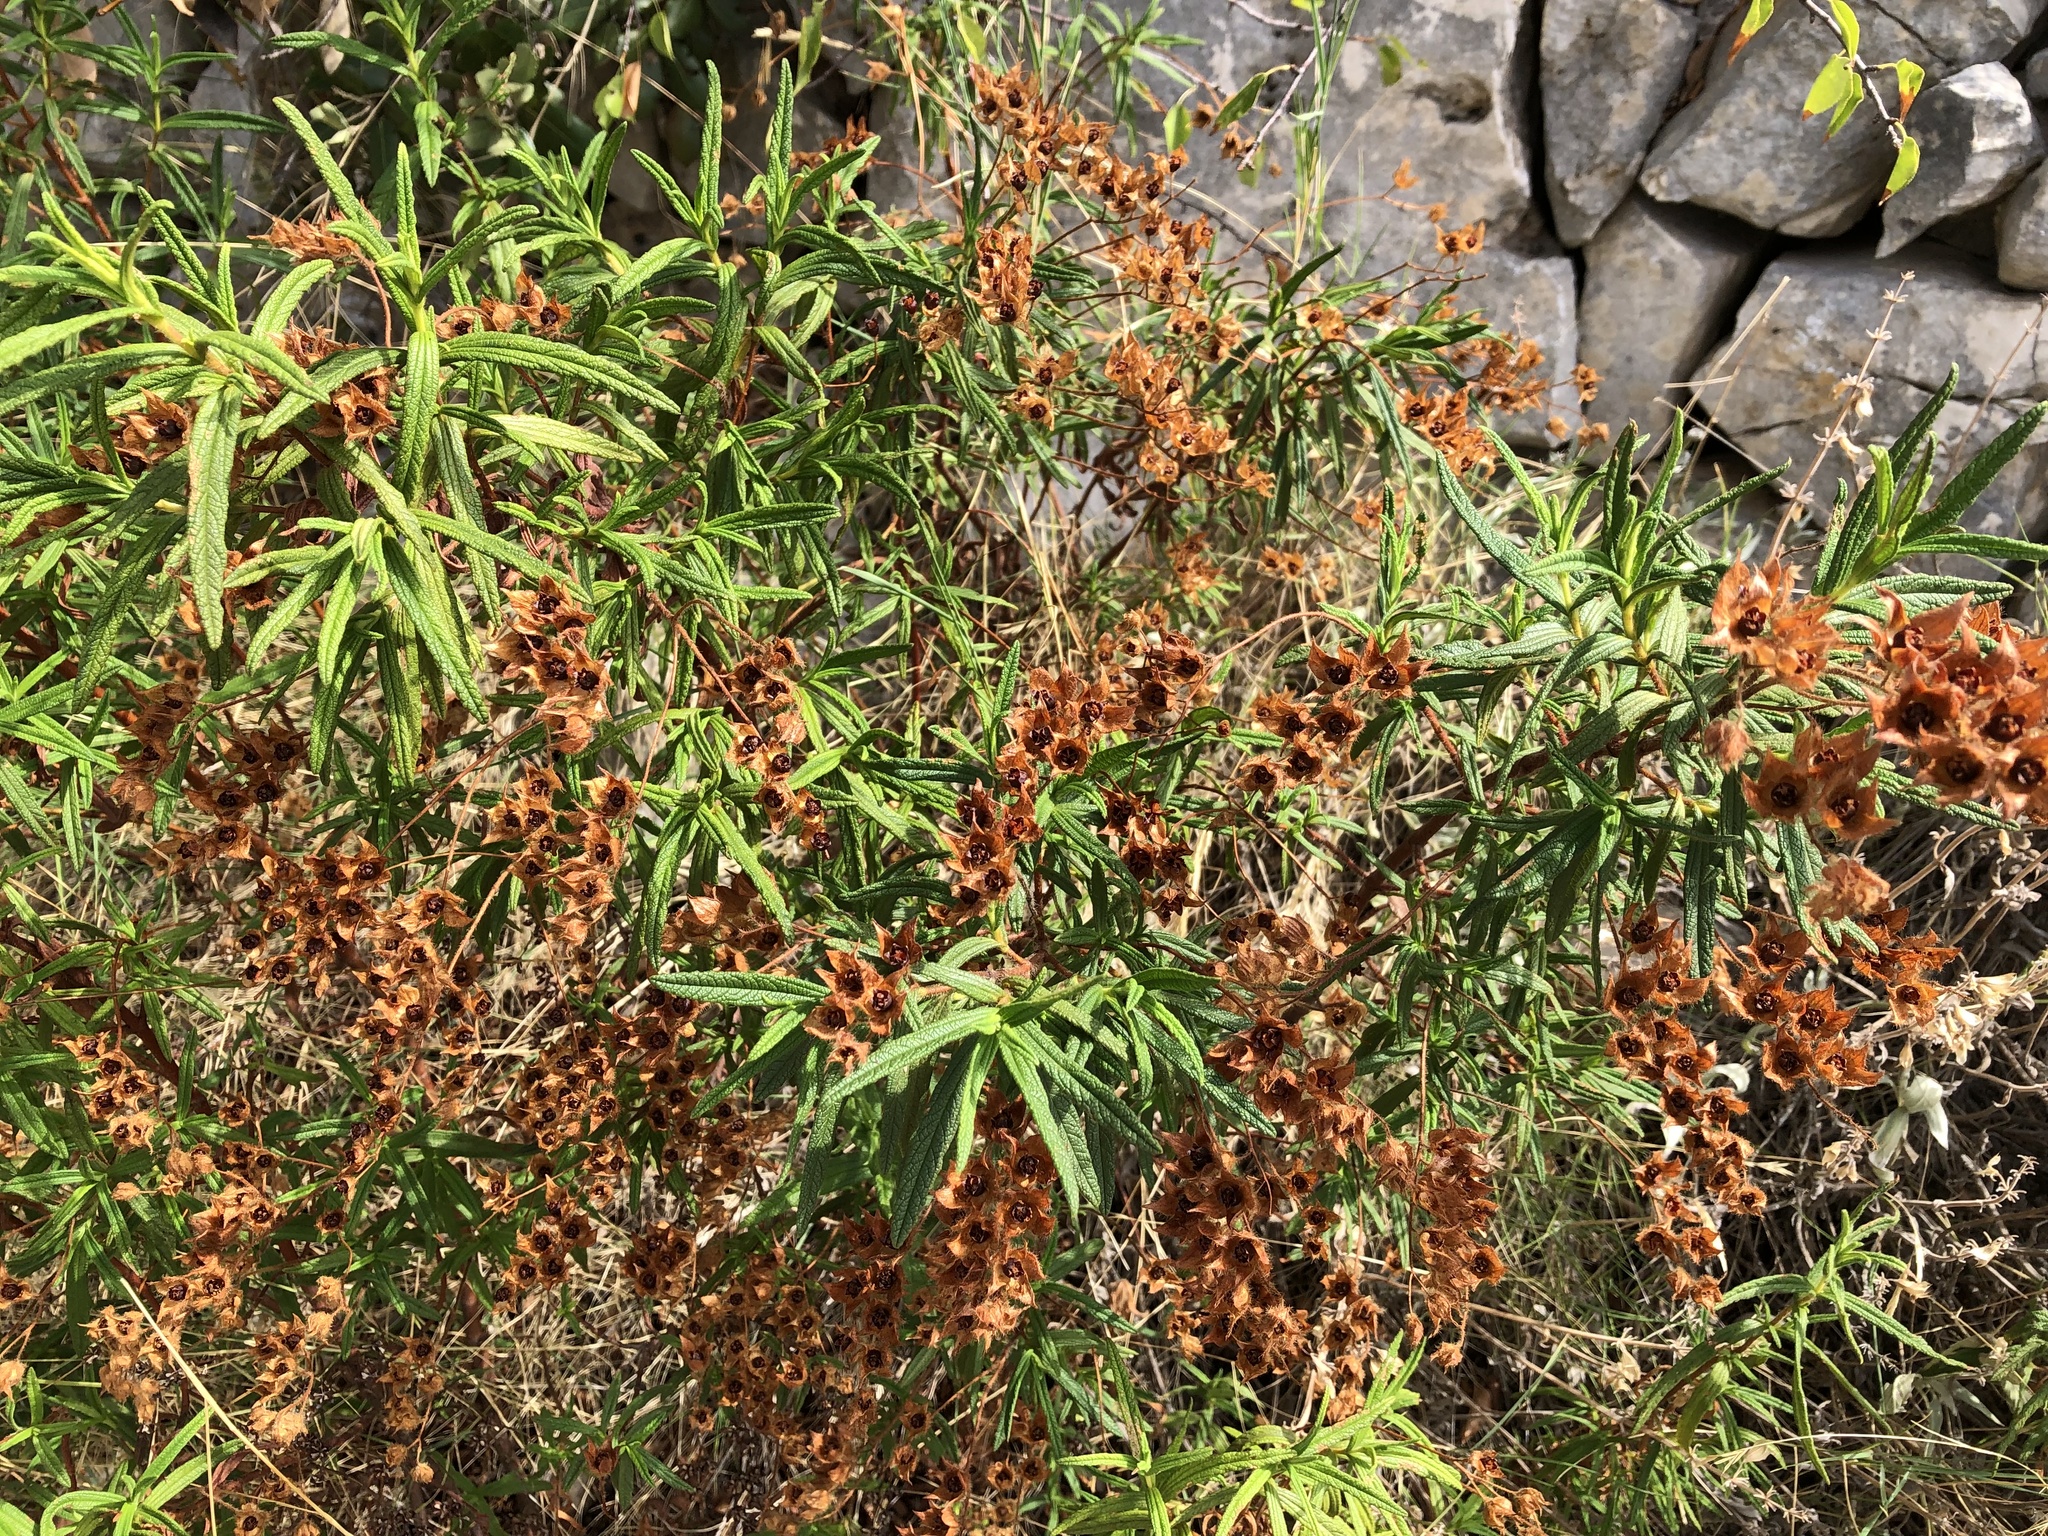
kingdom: Plantae
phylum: Tracheophyta
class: Magnoliopsida
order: Malvales
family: Cistaceae
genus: Cistus
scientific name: Cistus monspeliensis
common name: Montpelier cistus
